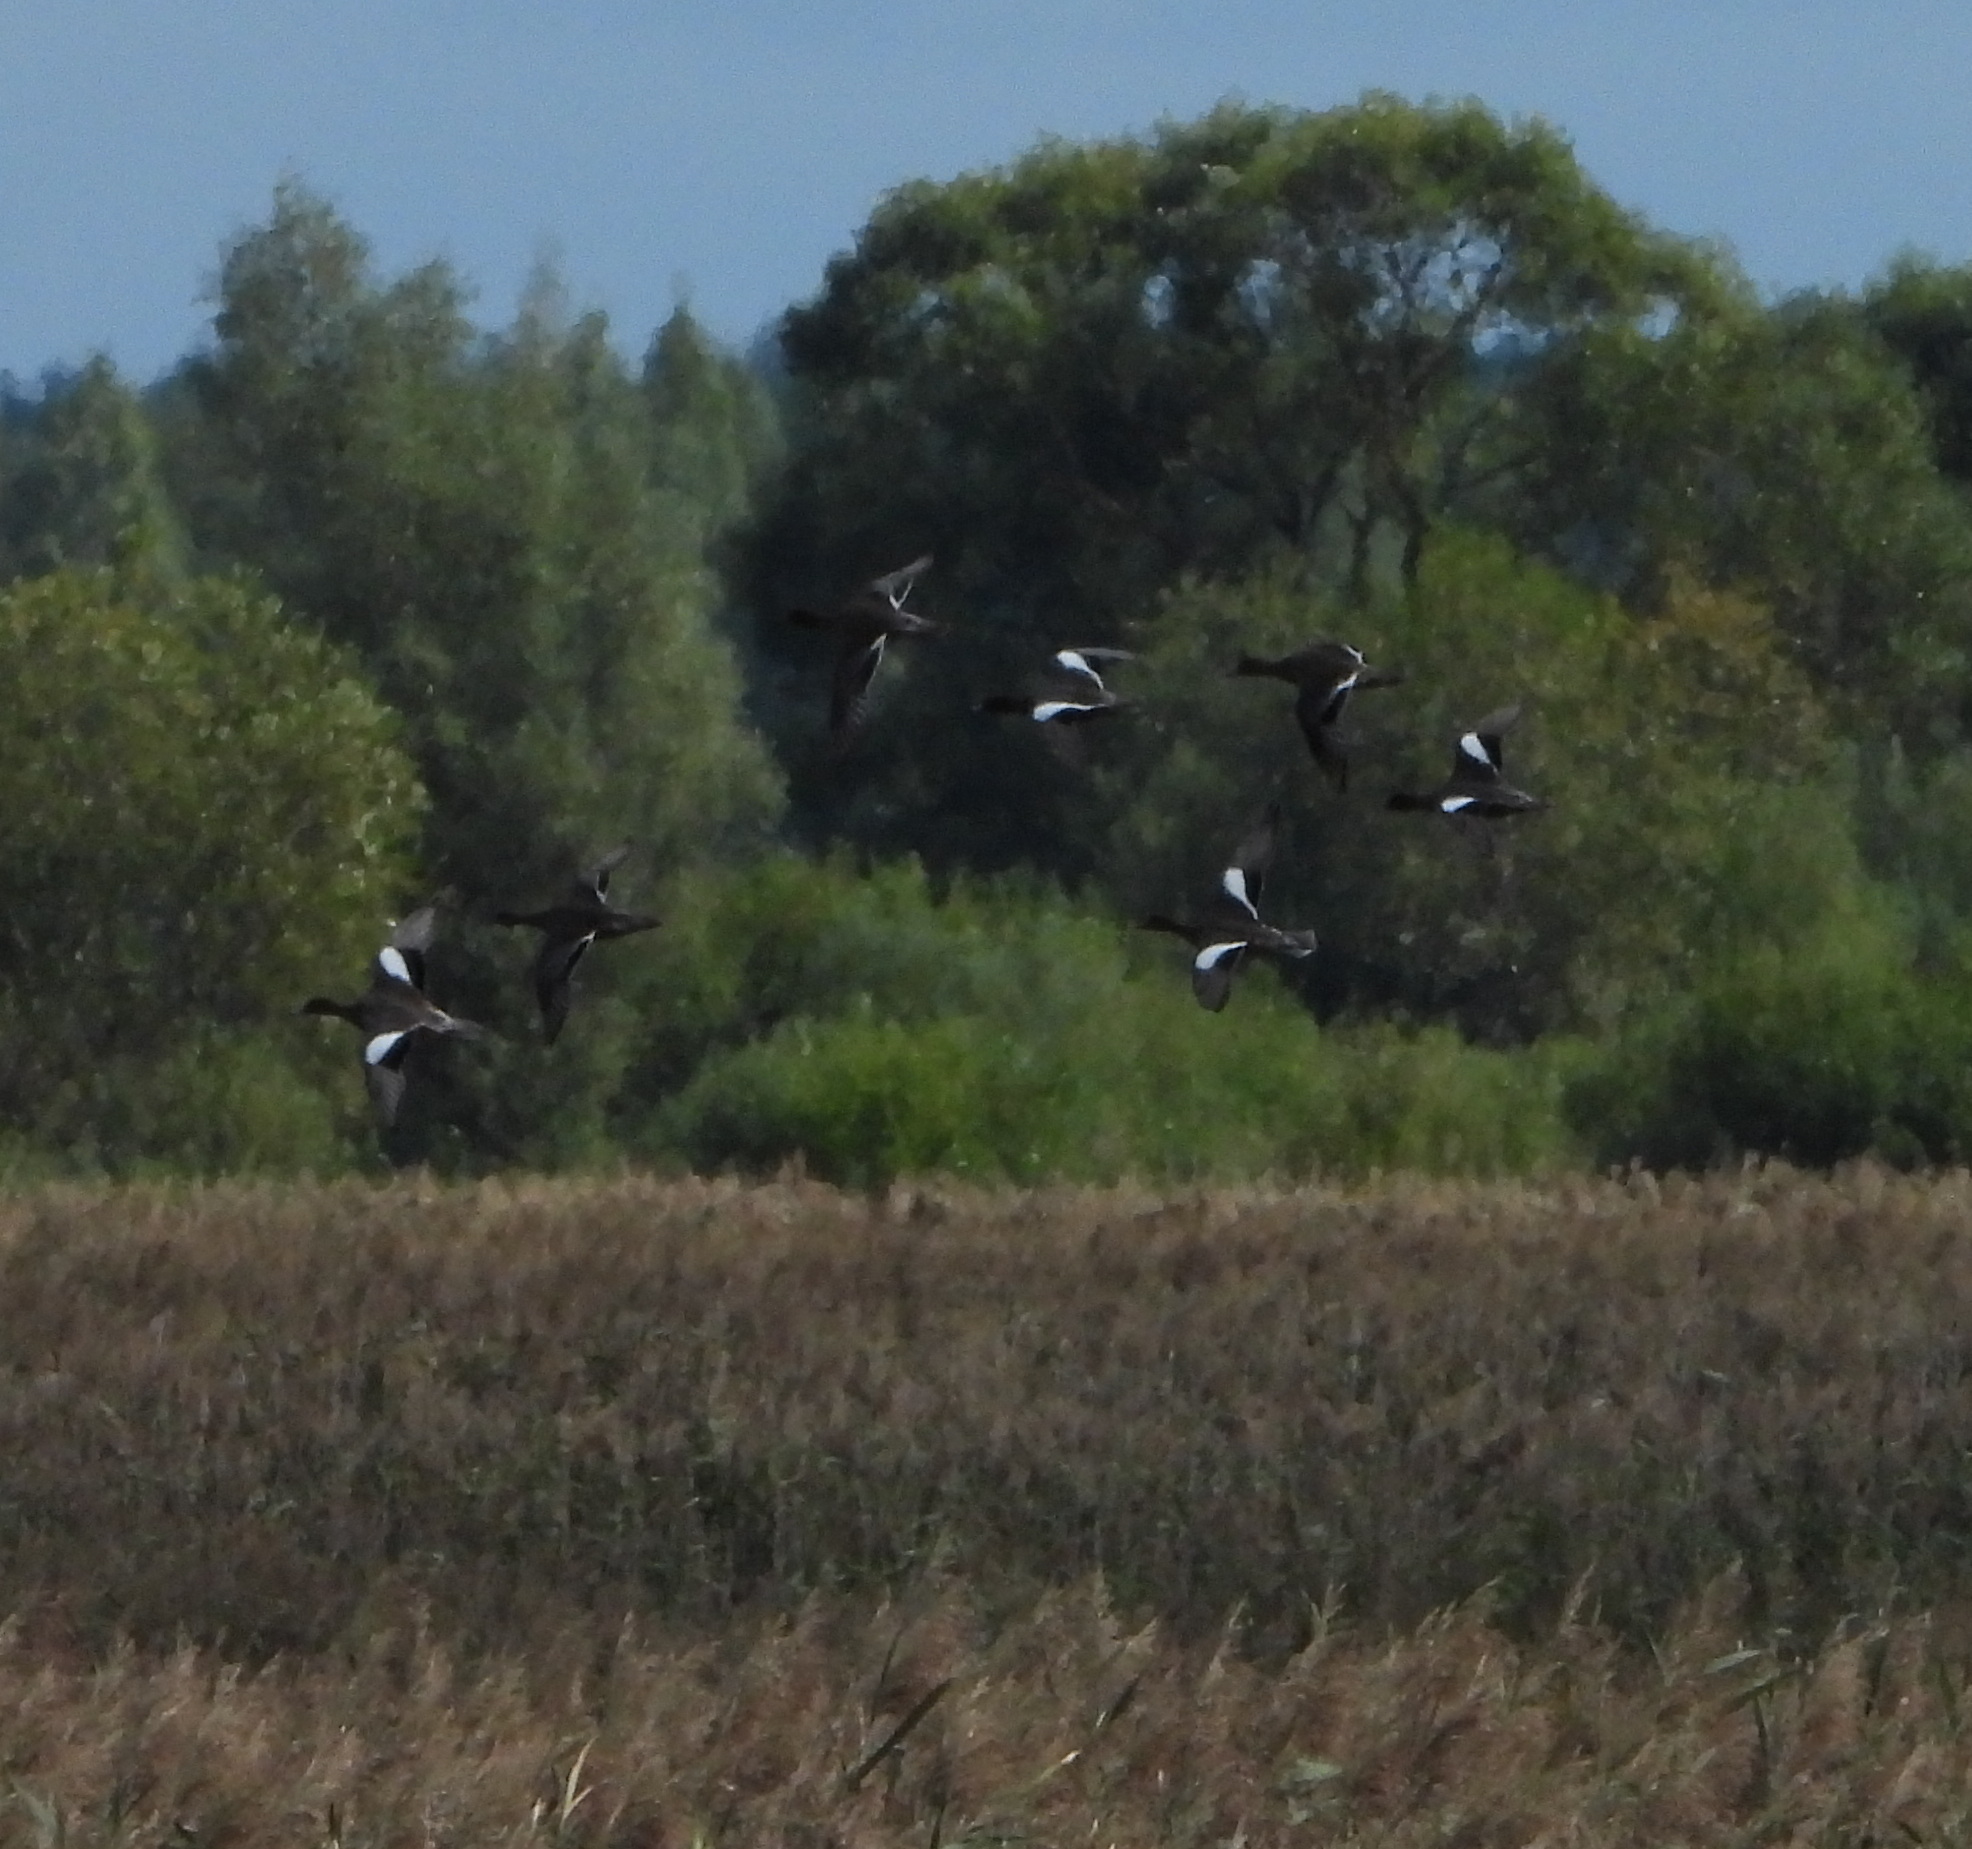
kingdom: Animalia
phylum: Chordata
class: Aves
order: Anseriformes
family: Anatidae
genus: Mareca
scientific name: Mareca penelope
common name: Eurasian wigeon
